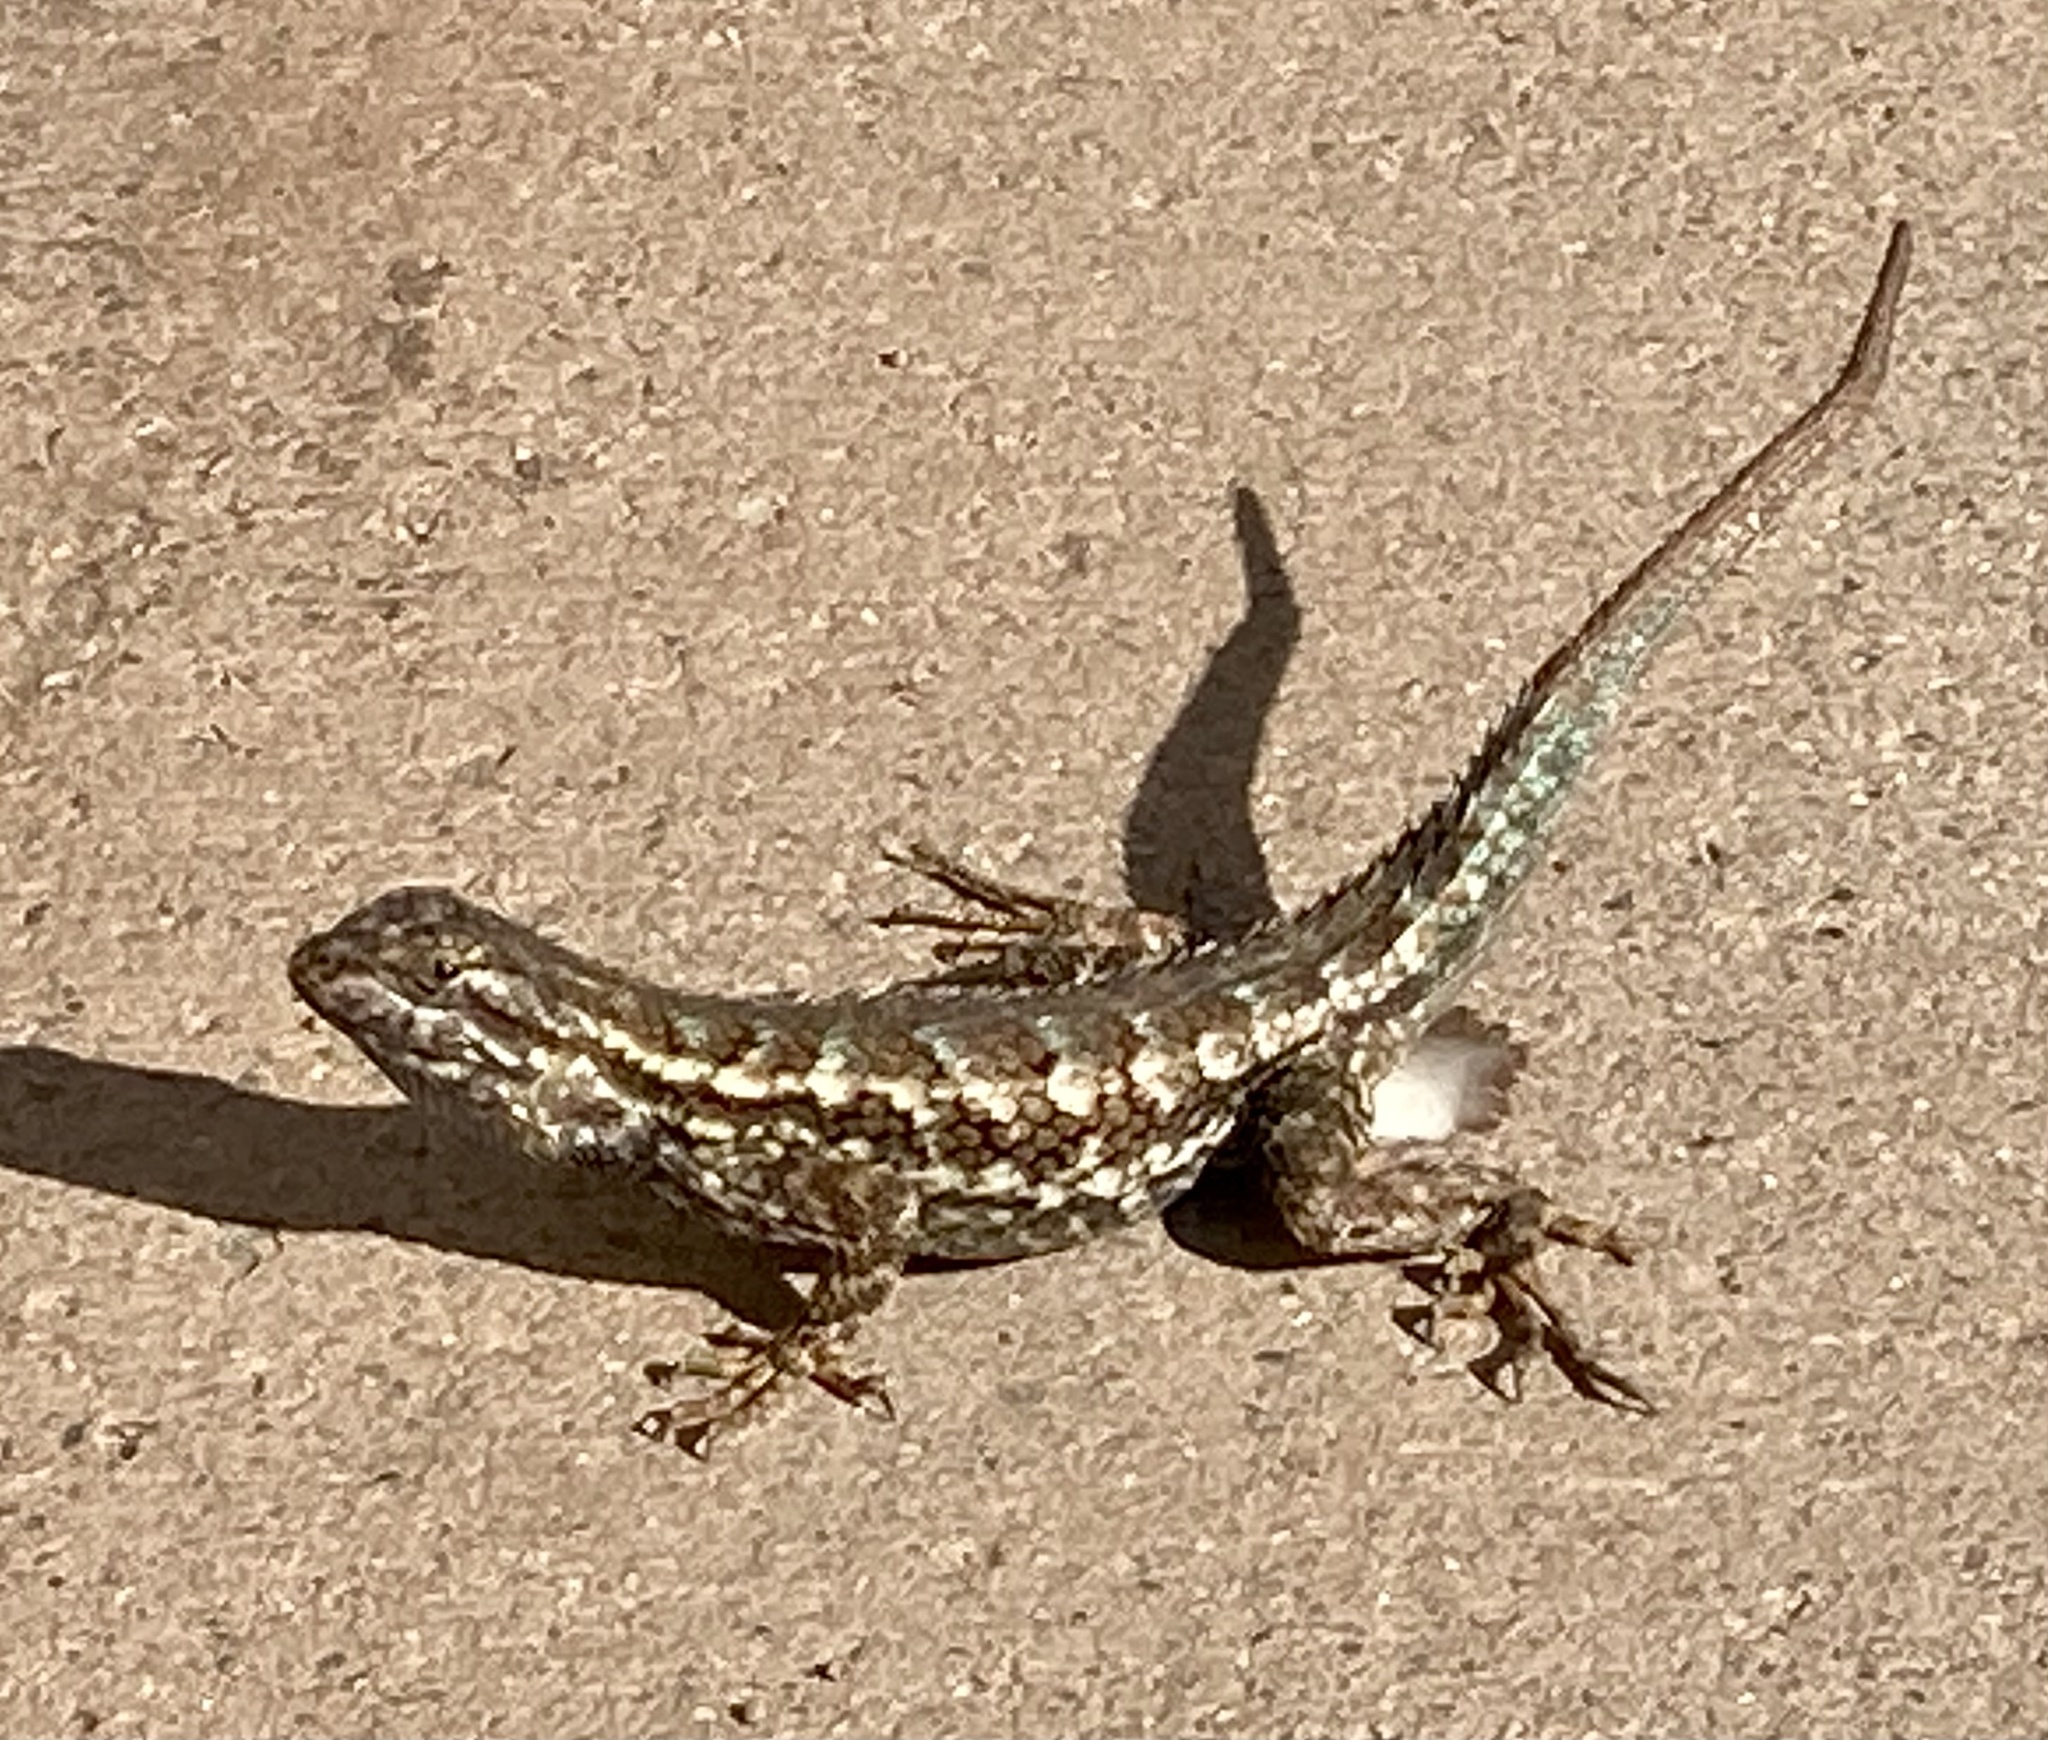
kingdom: Animalia
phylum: Chordata
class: Squamata
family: Phrynosomatidae
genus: Sceloporus
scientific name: Sceloporus occidentalis
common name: Western fence lizard
